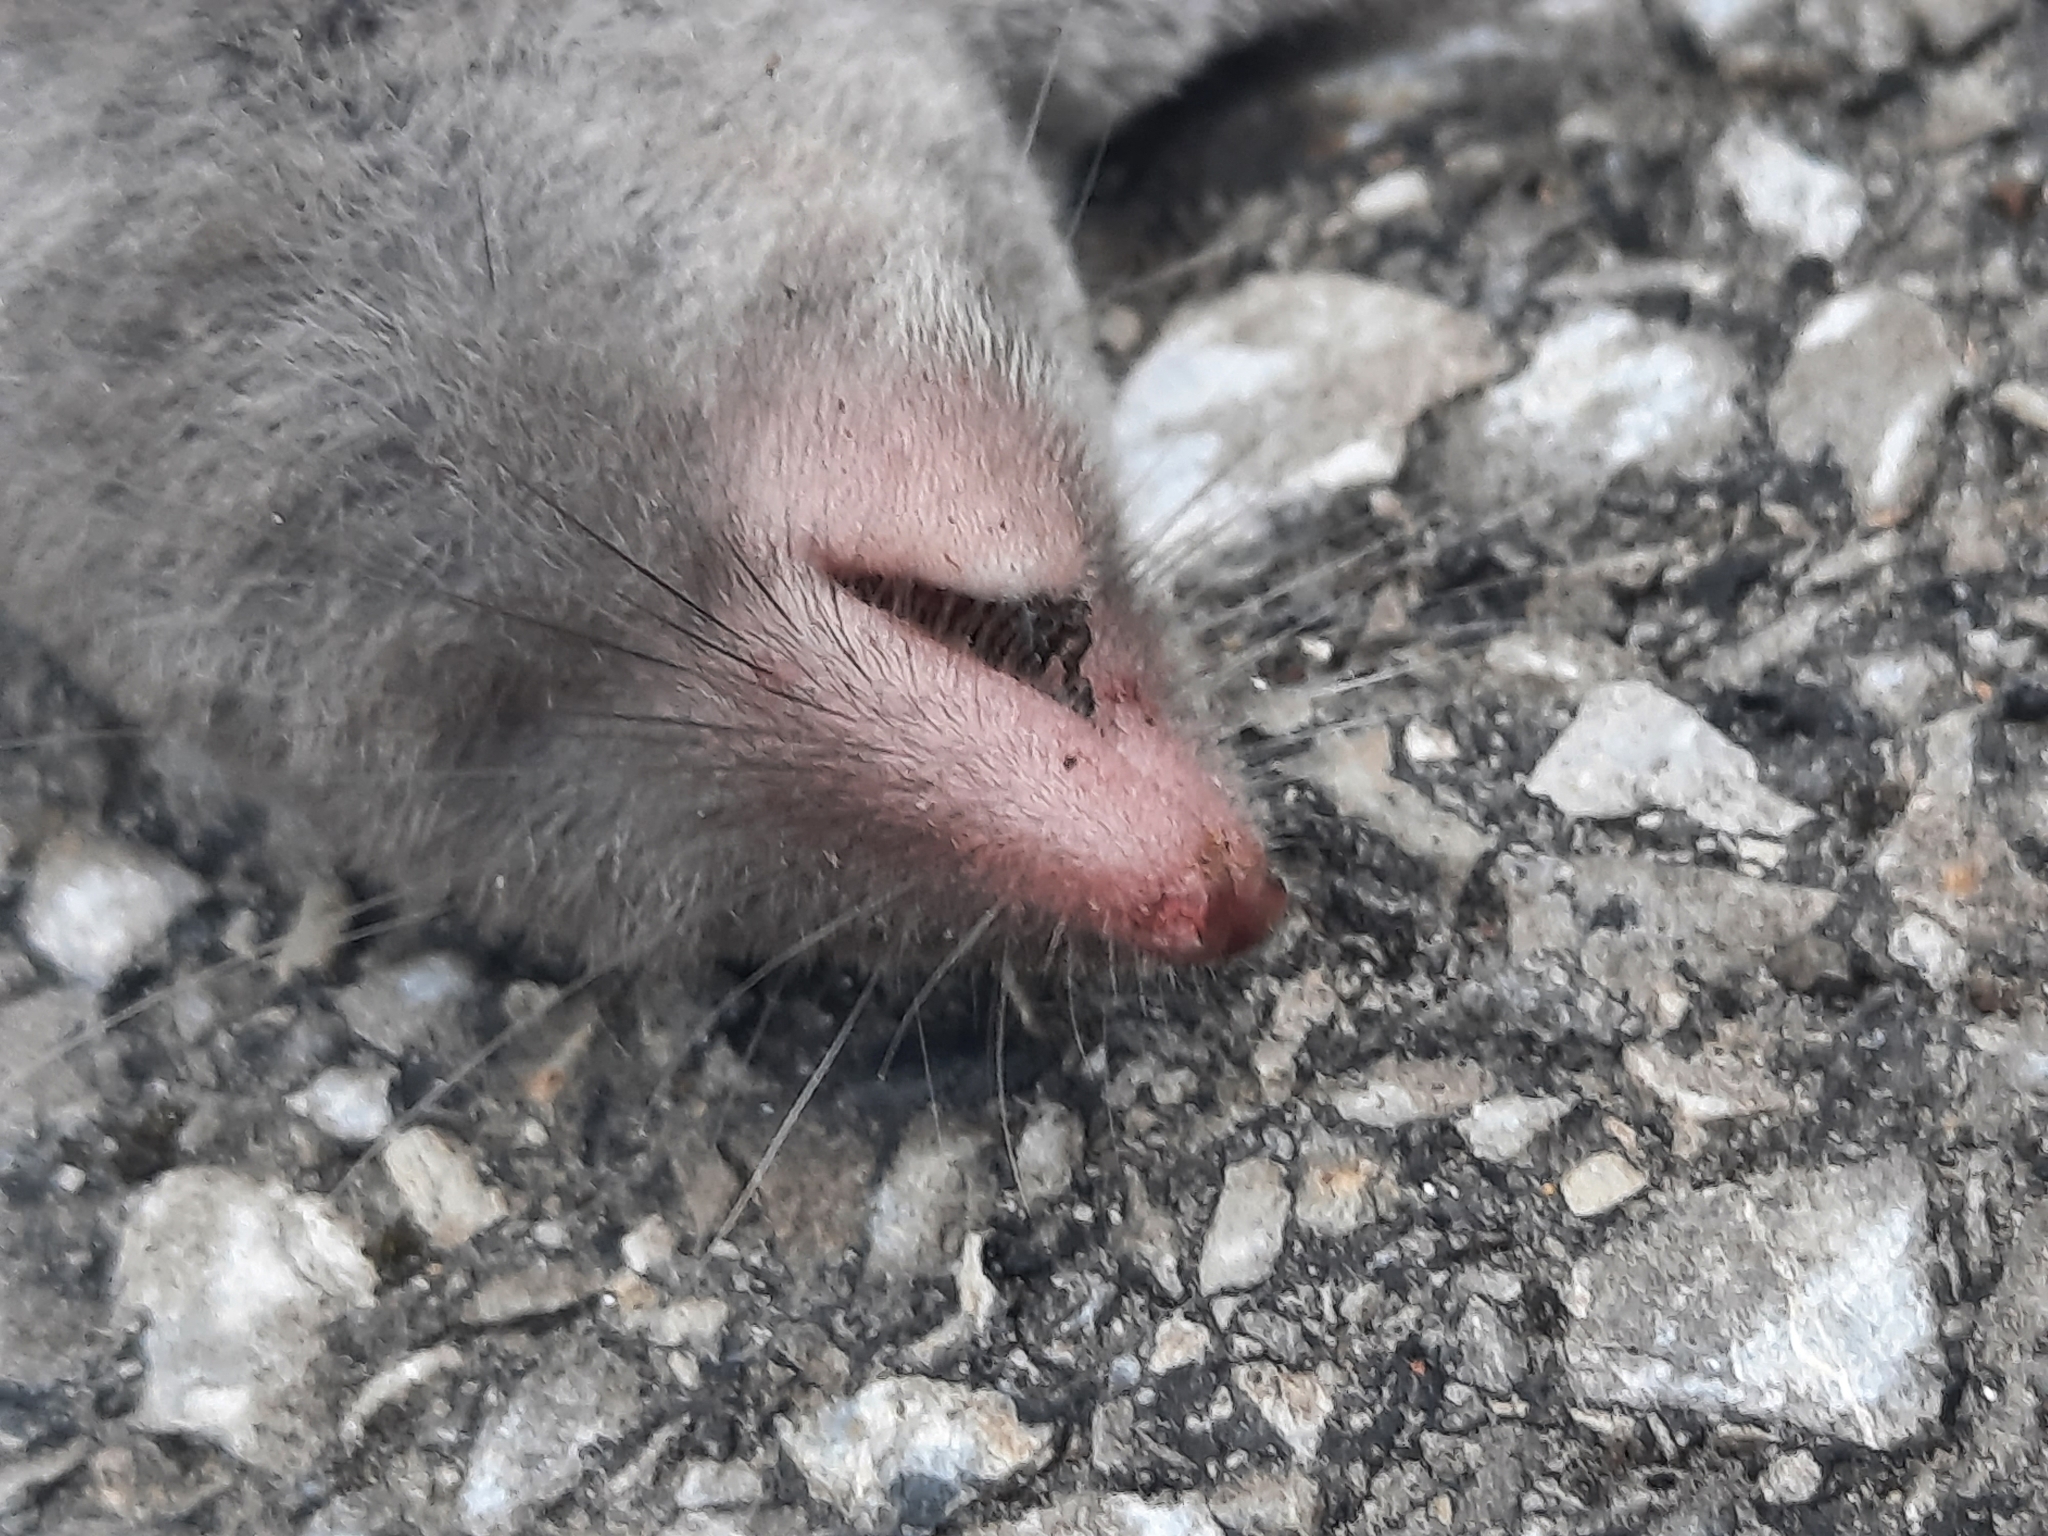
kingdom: Animalia
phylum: Chordata
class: Mammalia
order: Soricomorpha
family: Soricidae
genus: Blarina
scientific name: Blarina brevicauda
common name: Northern short-tailed shrew
